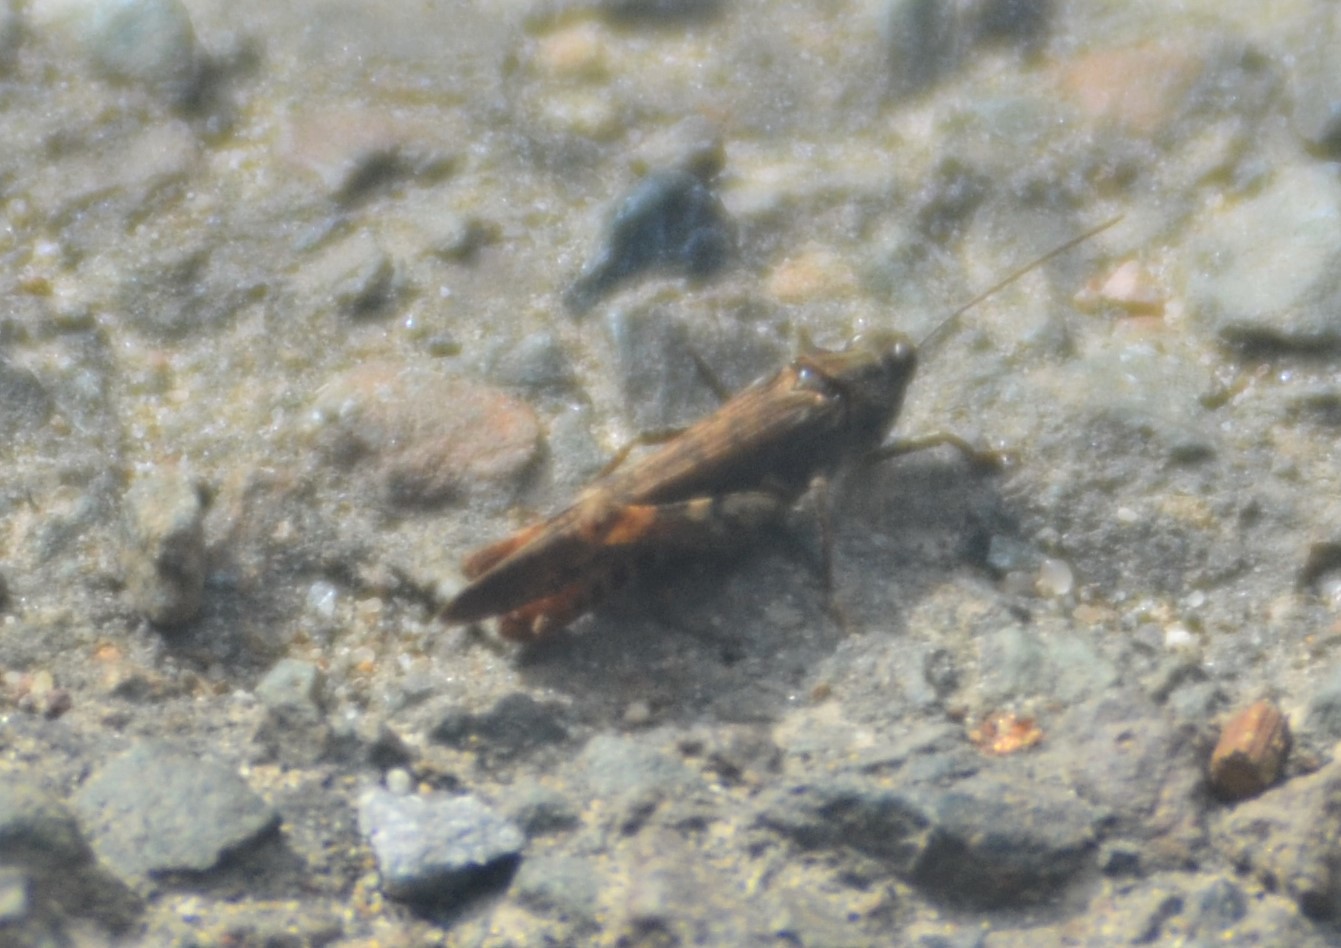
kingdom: Animalia
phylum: Arthropoda
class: Insecta
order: Orthoptera
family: Acrididae
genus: Chorthippus
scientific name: Chorthippus brunneus
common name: Field grasshopper
